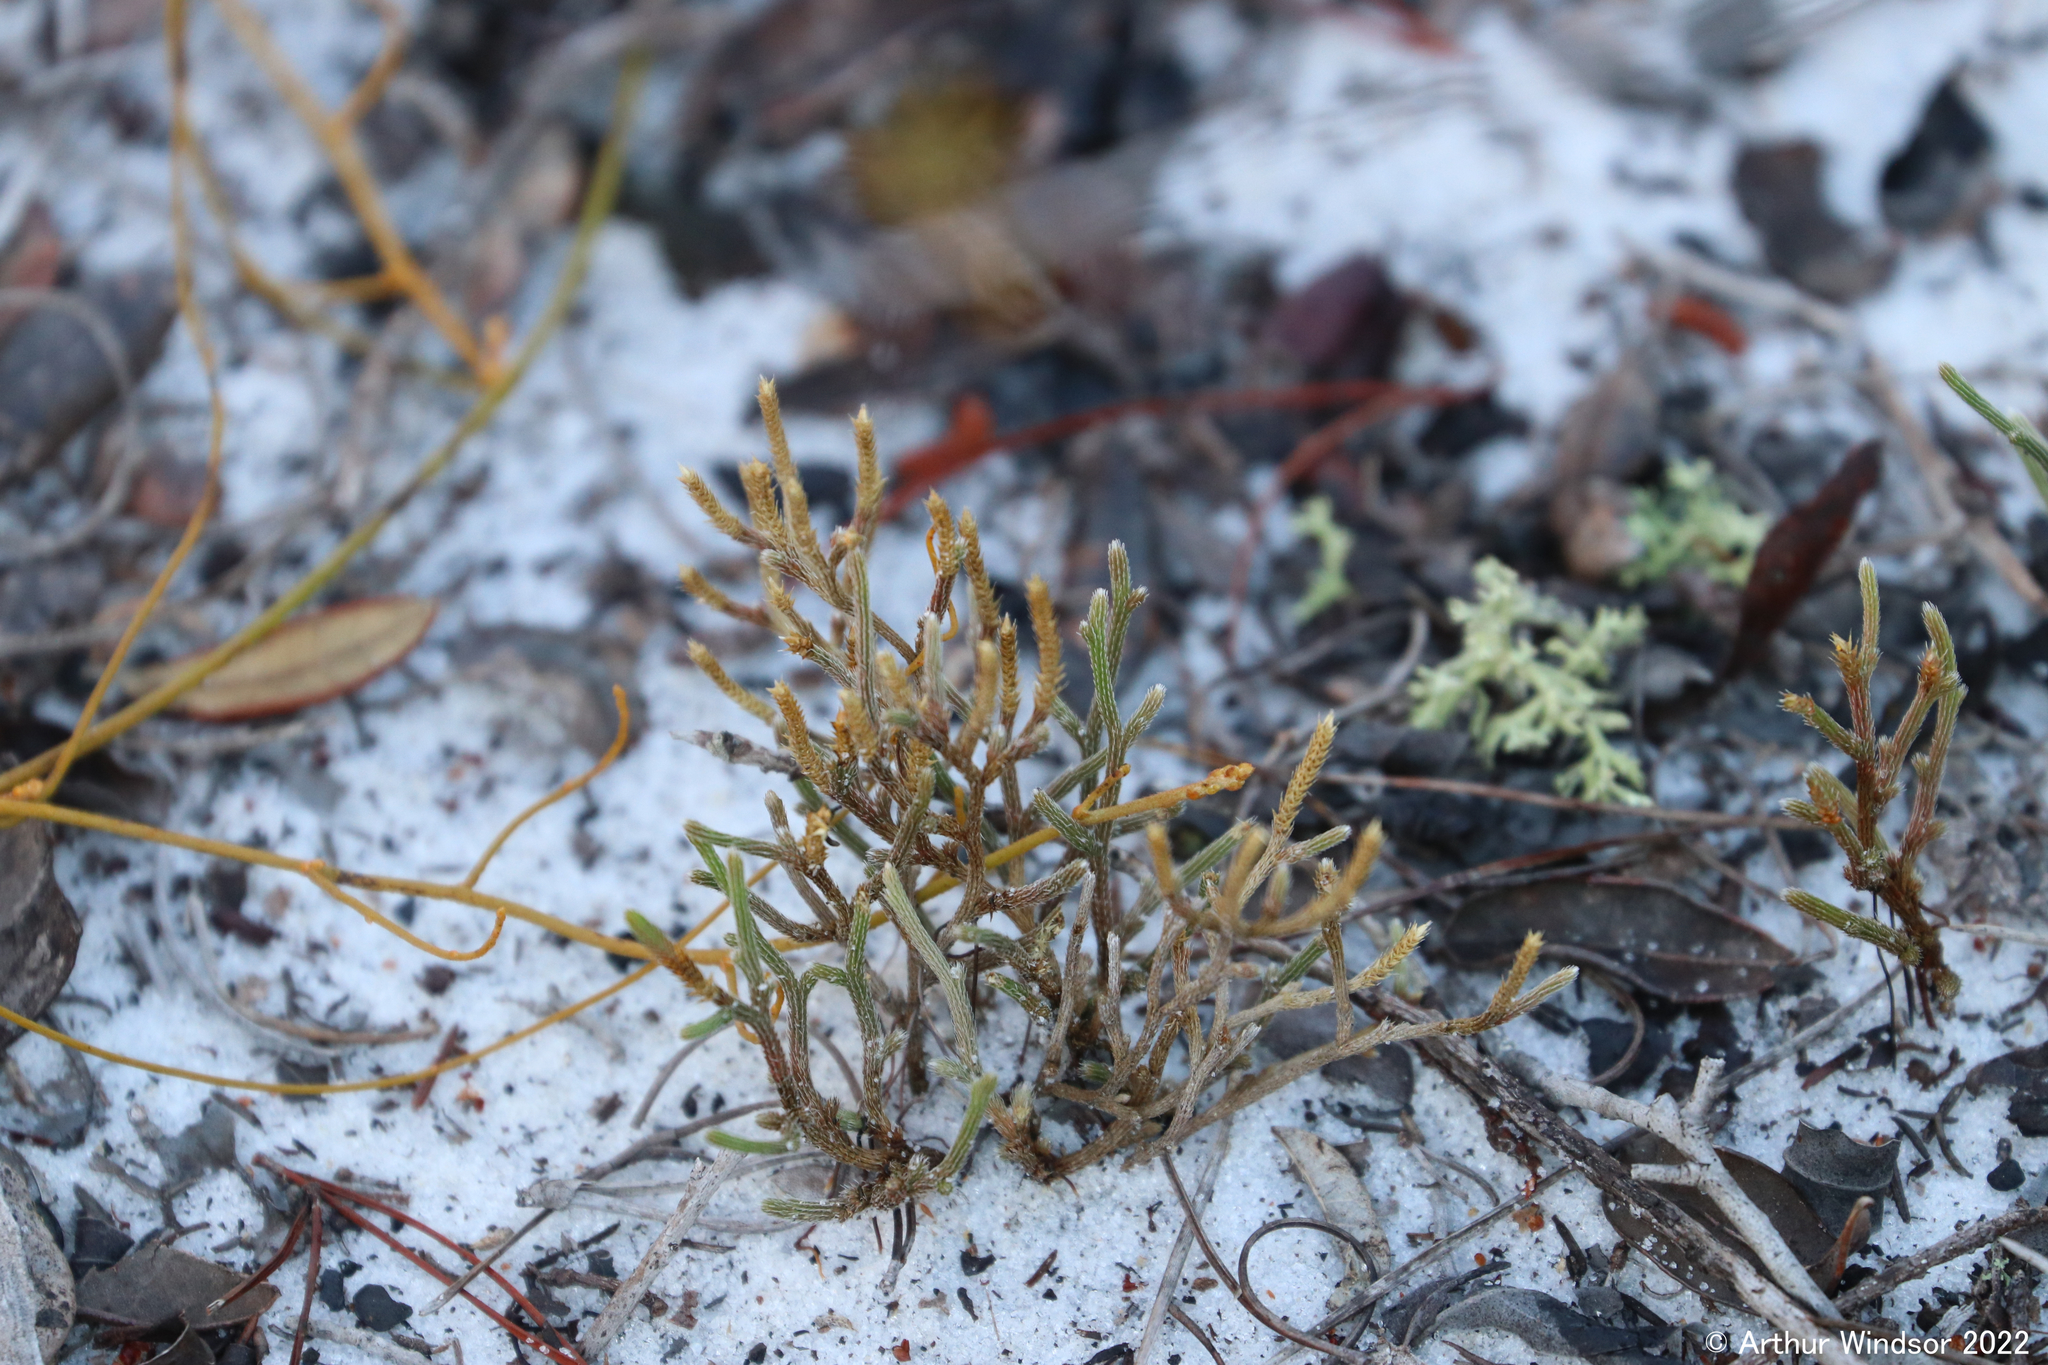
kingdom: Plantae
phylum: Tracheophyta
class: Lycopodiopsida
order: Selaginellales
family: Selaginellaceae
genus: Selaginella
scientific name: Selaginella arenicola
